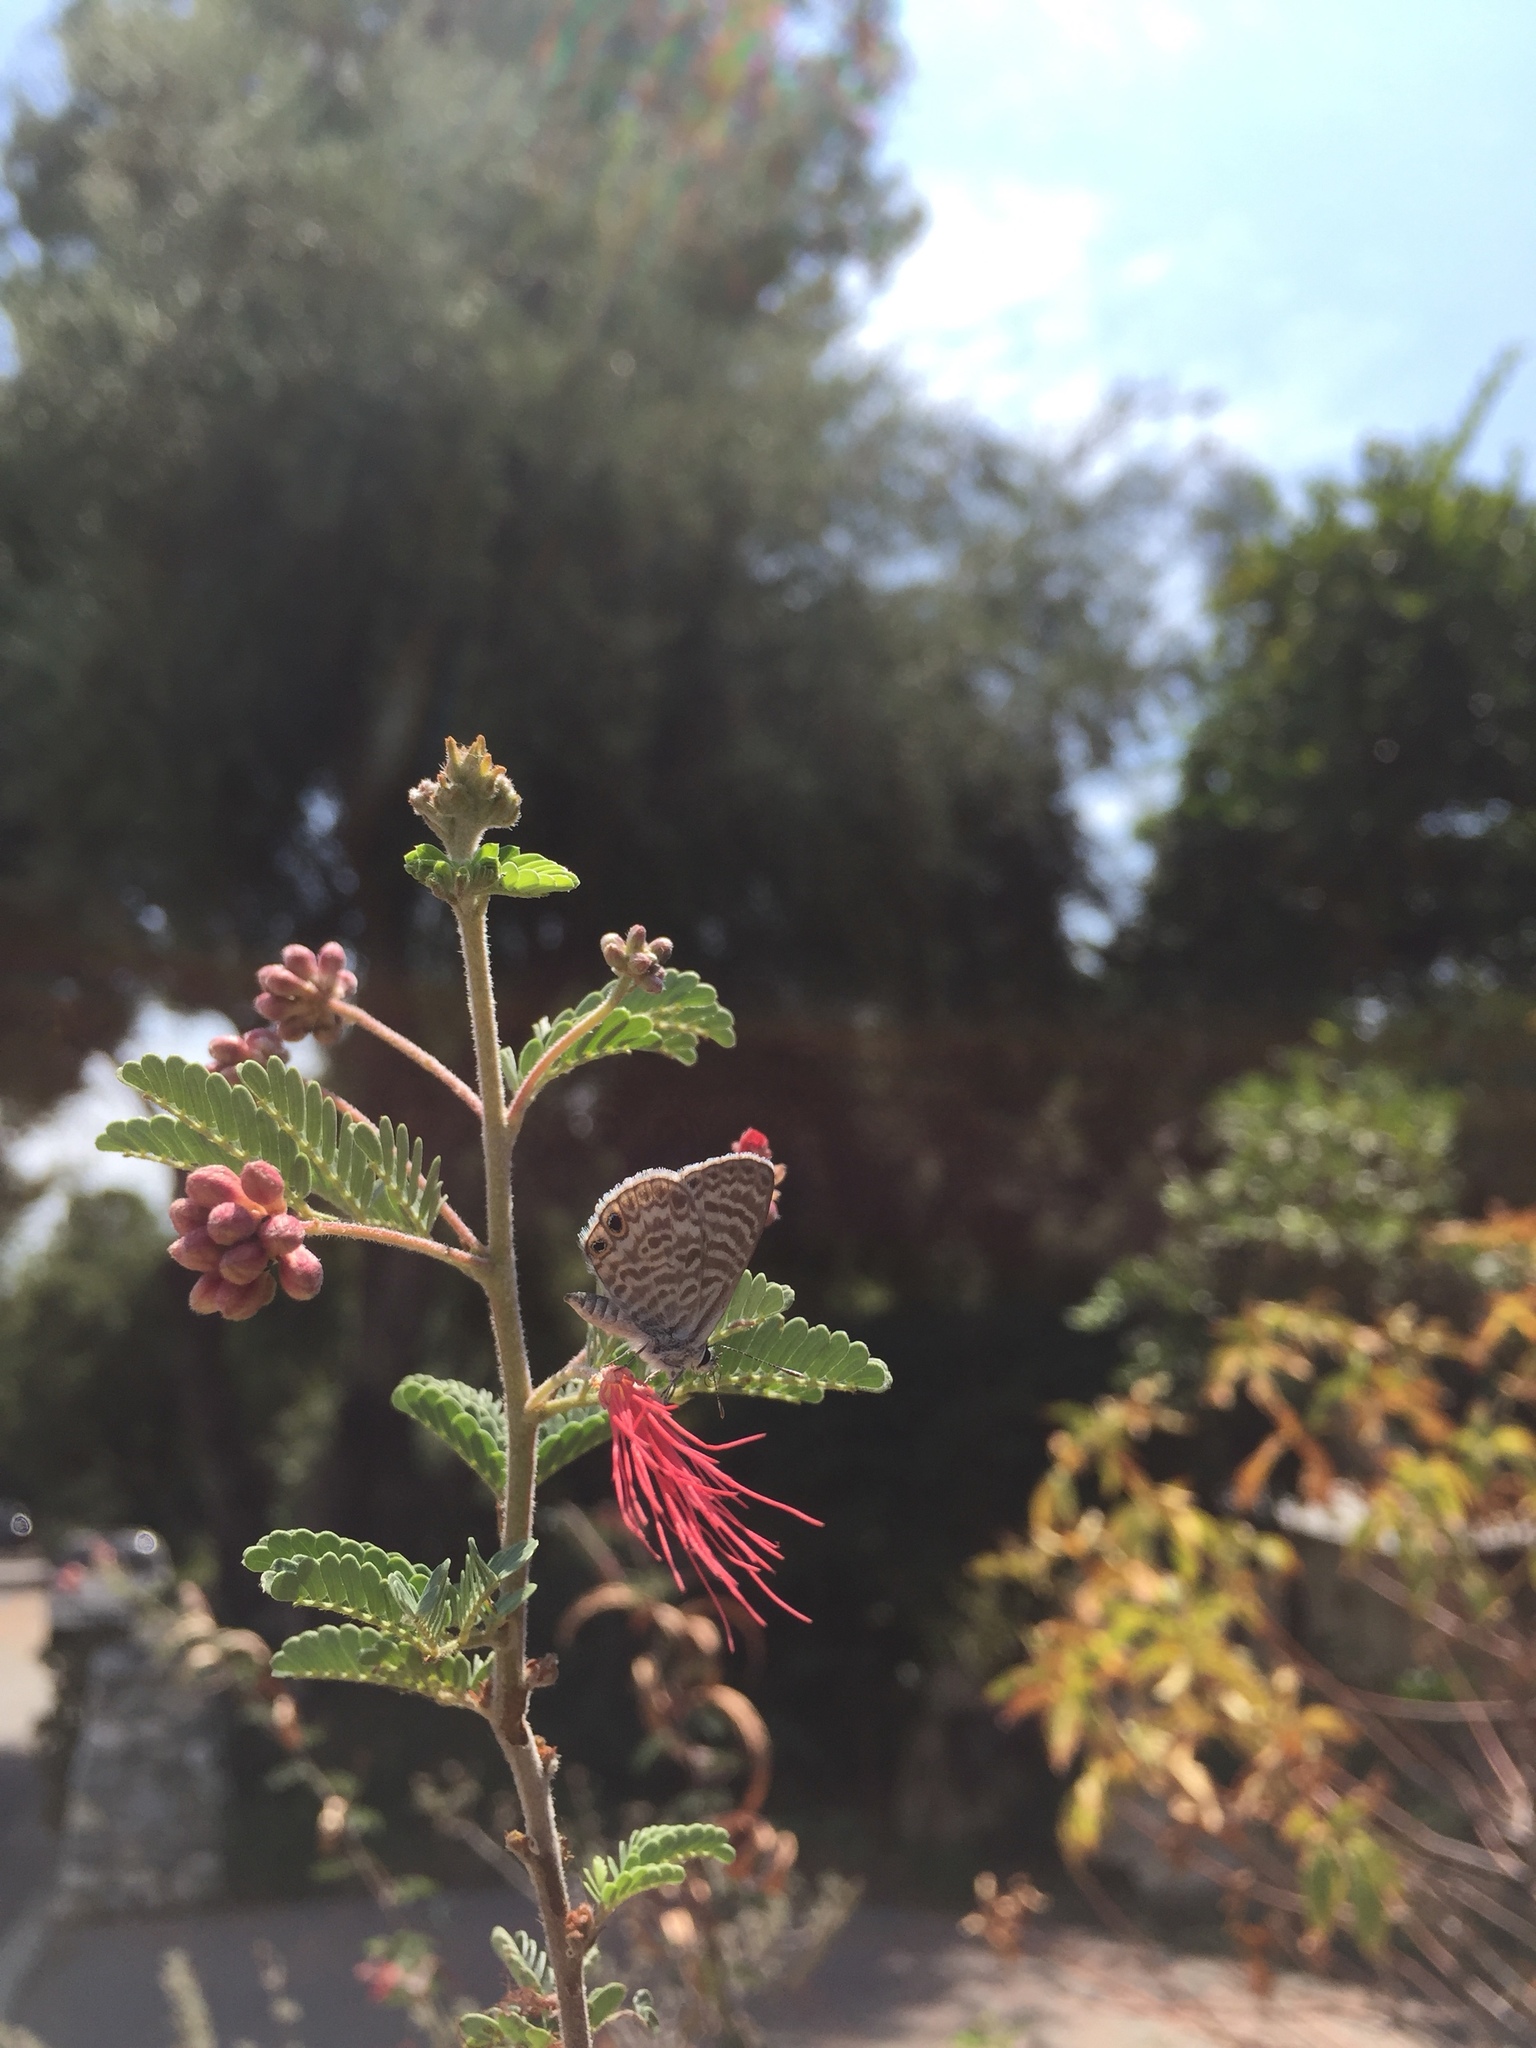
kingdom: Animalia
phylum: Arthropoda
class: Insecta
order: Lepidoptera
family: Lycaenidae
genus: Leptotes
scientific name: Leptotes marina
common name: Marine blue
